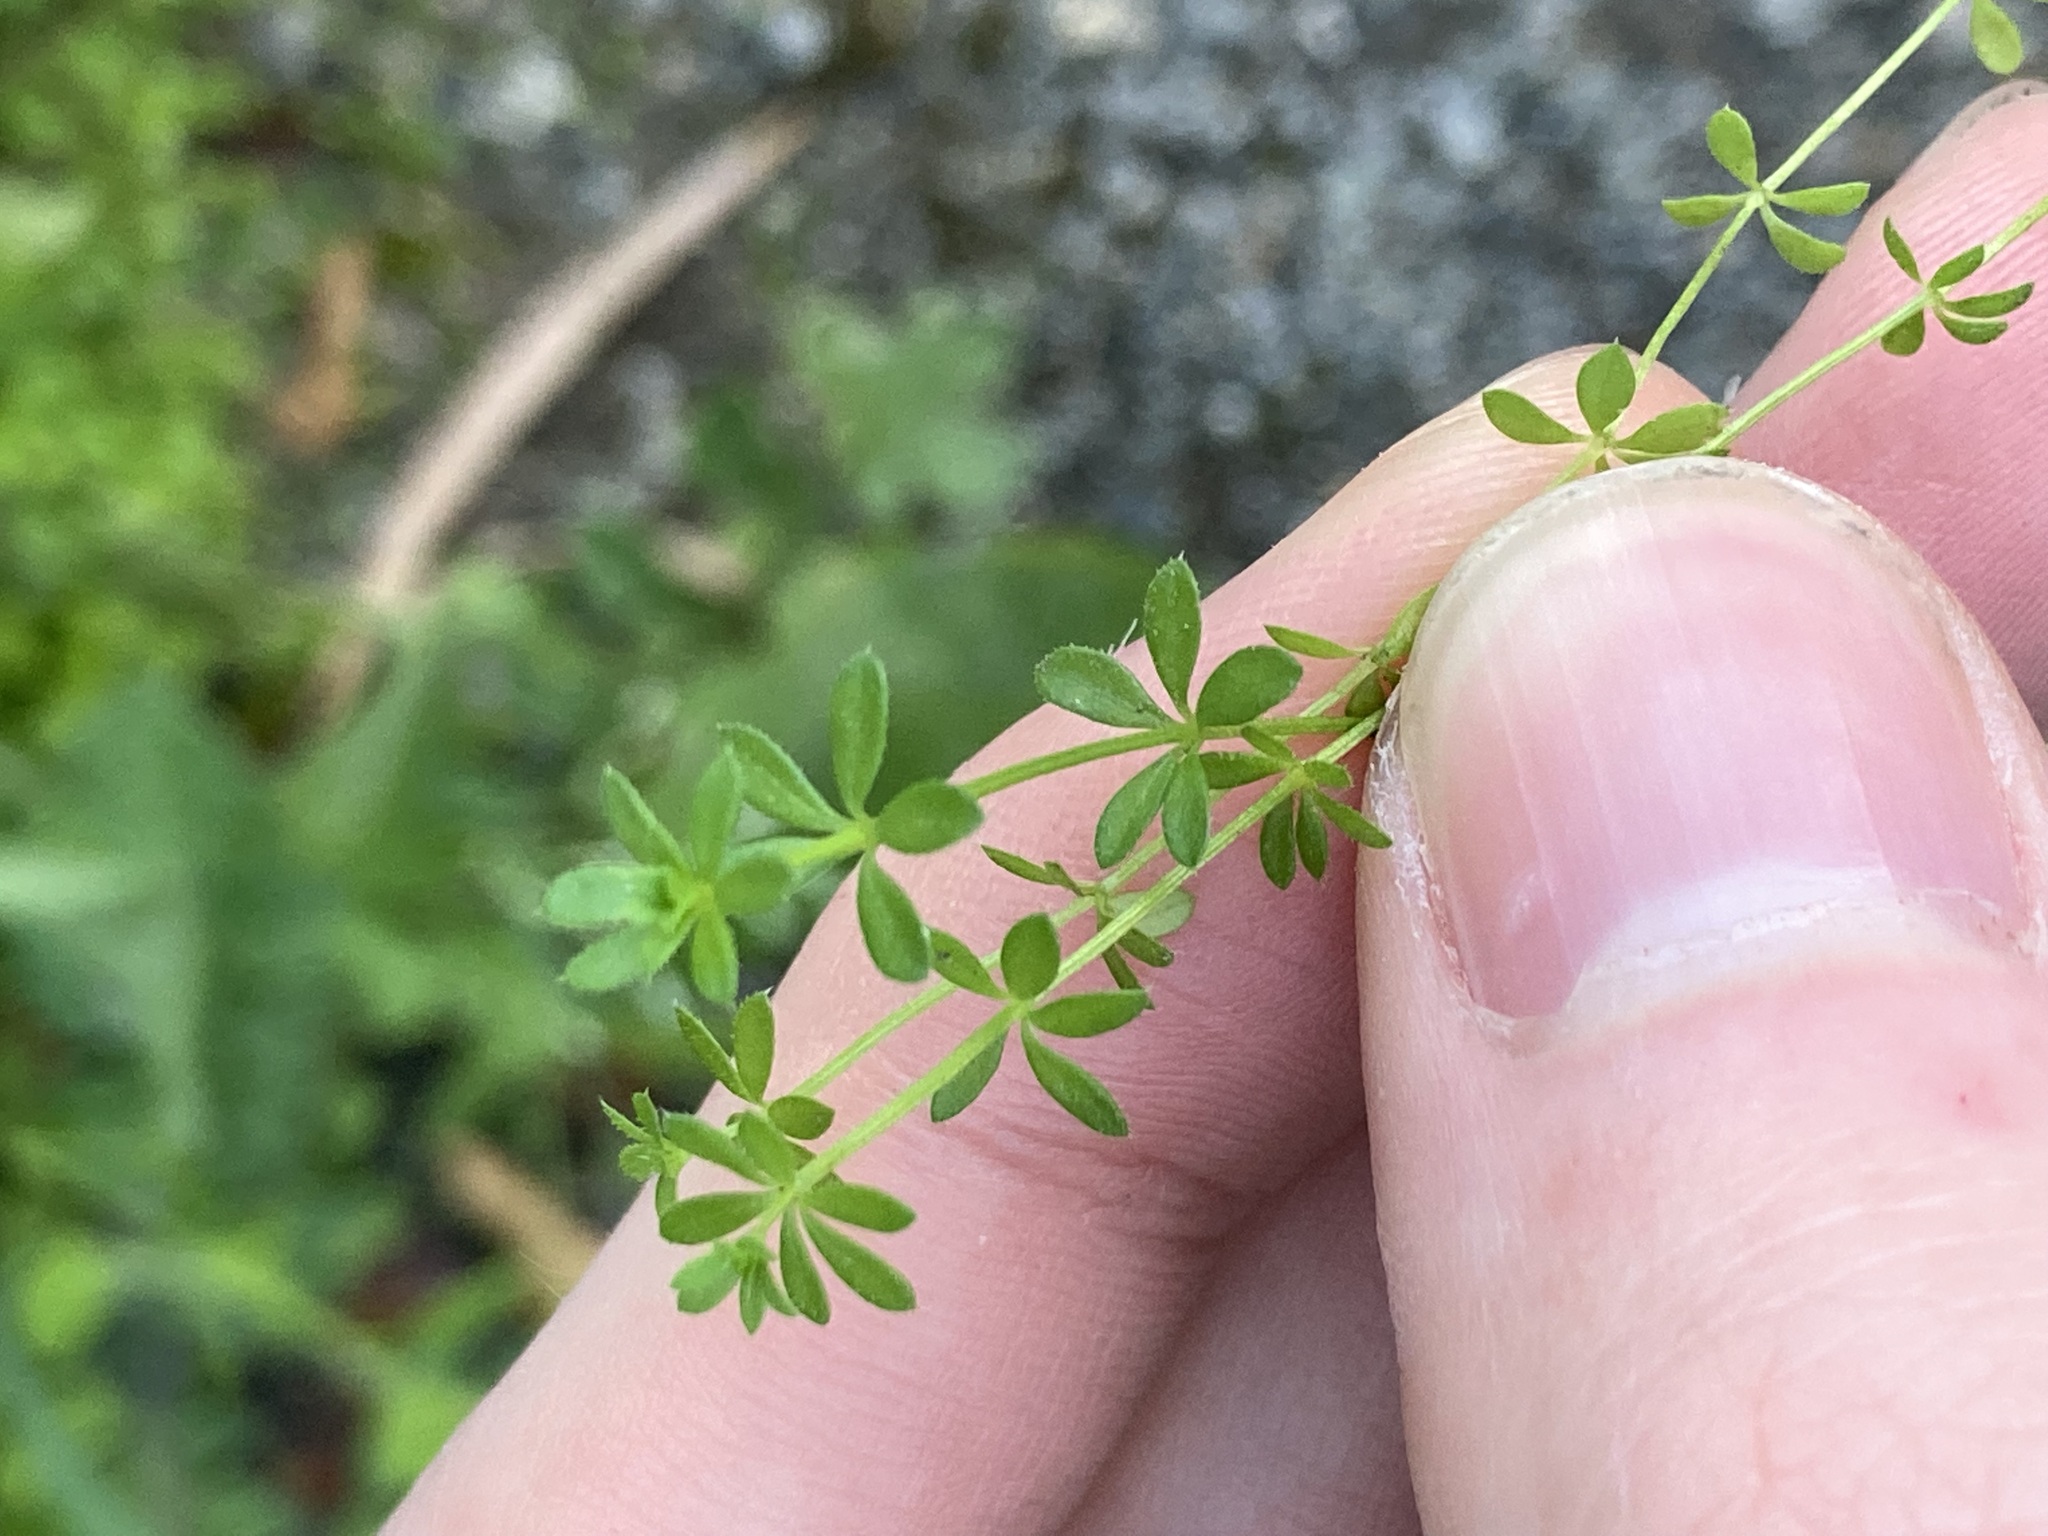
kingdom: Plantae
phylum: Tracheophyta
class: Magnoliopsida
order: Gentianales
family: Rubiaceae
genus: Galium
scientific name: Galium murale
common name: Yellow wall bedstraw
